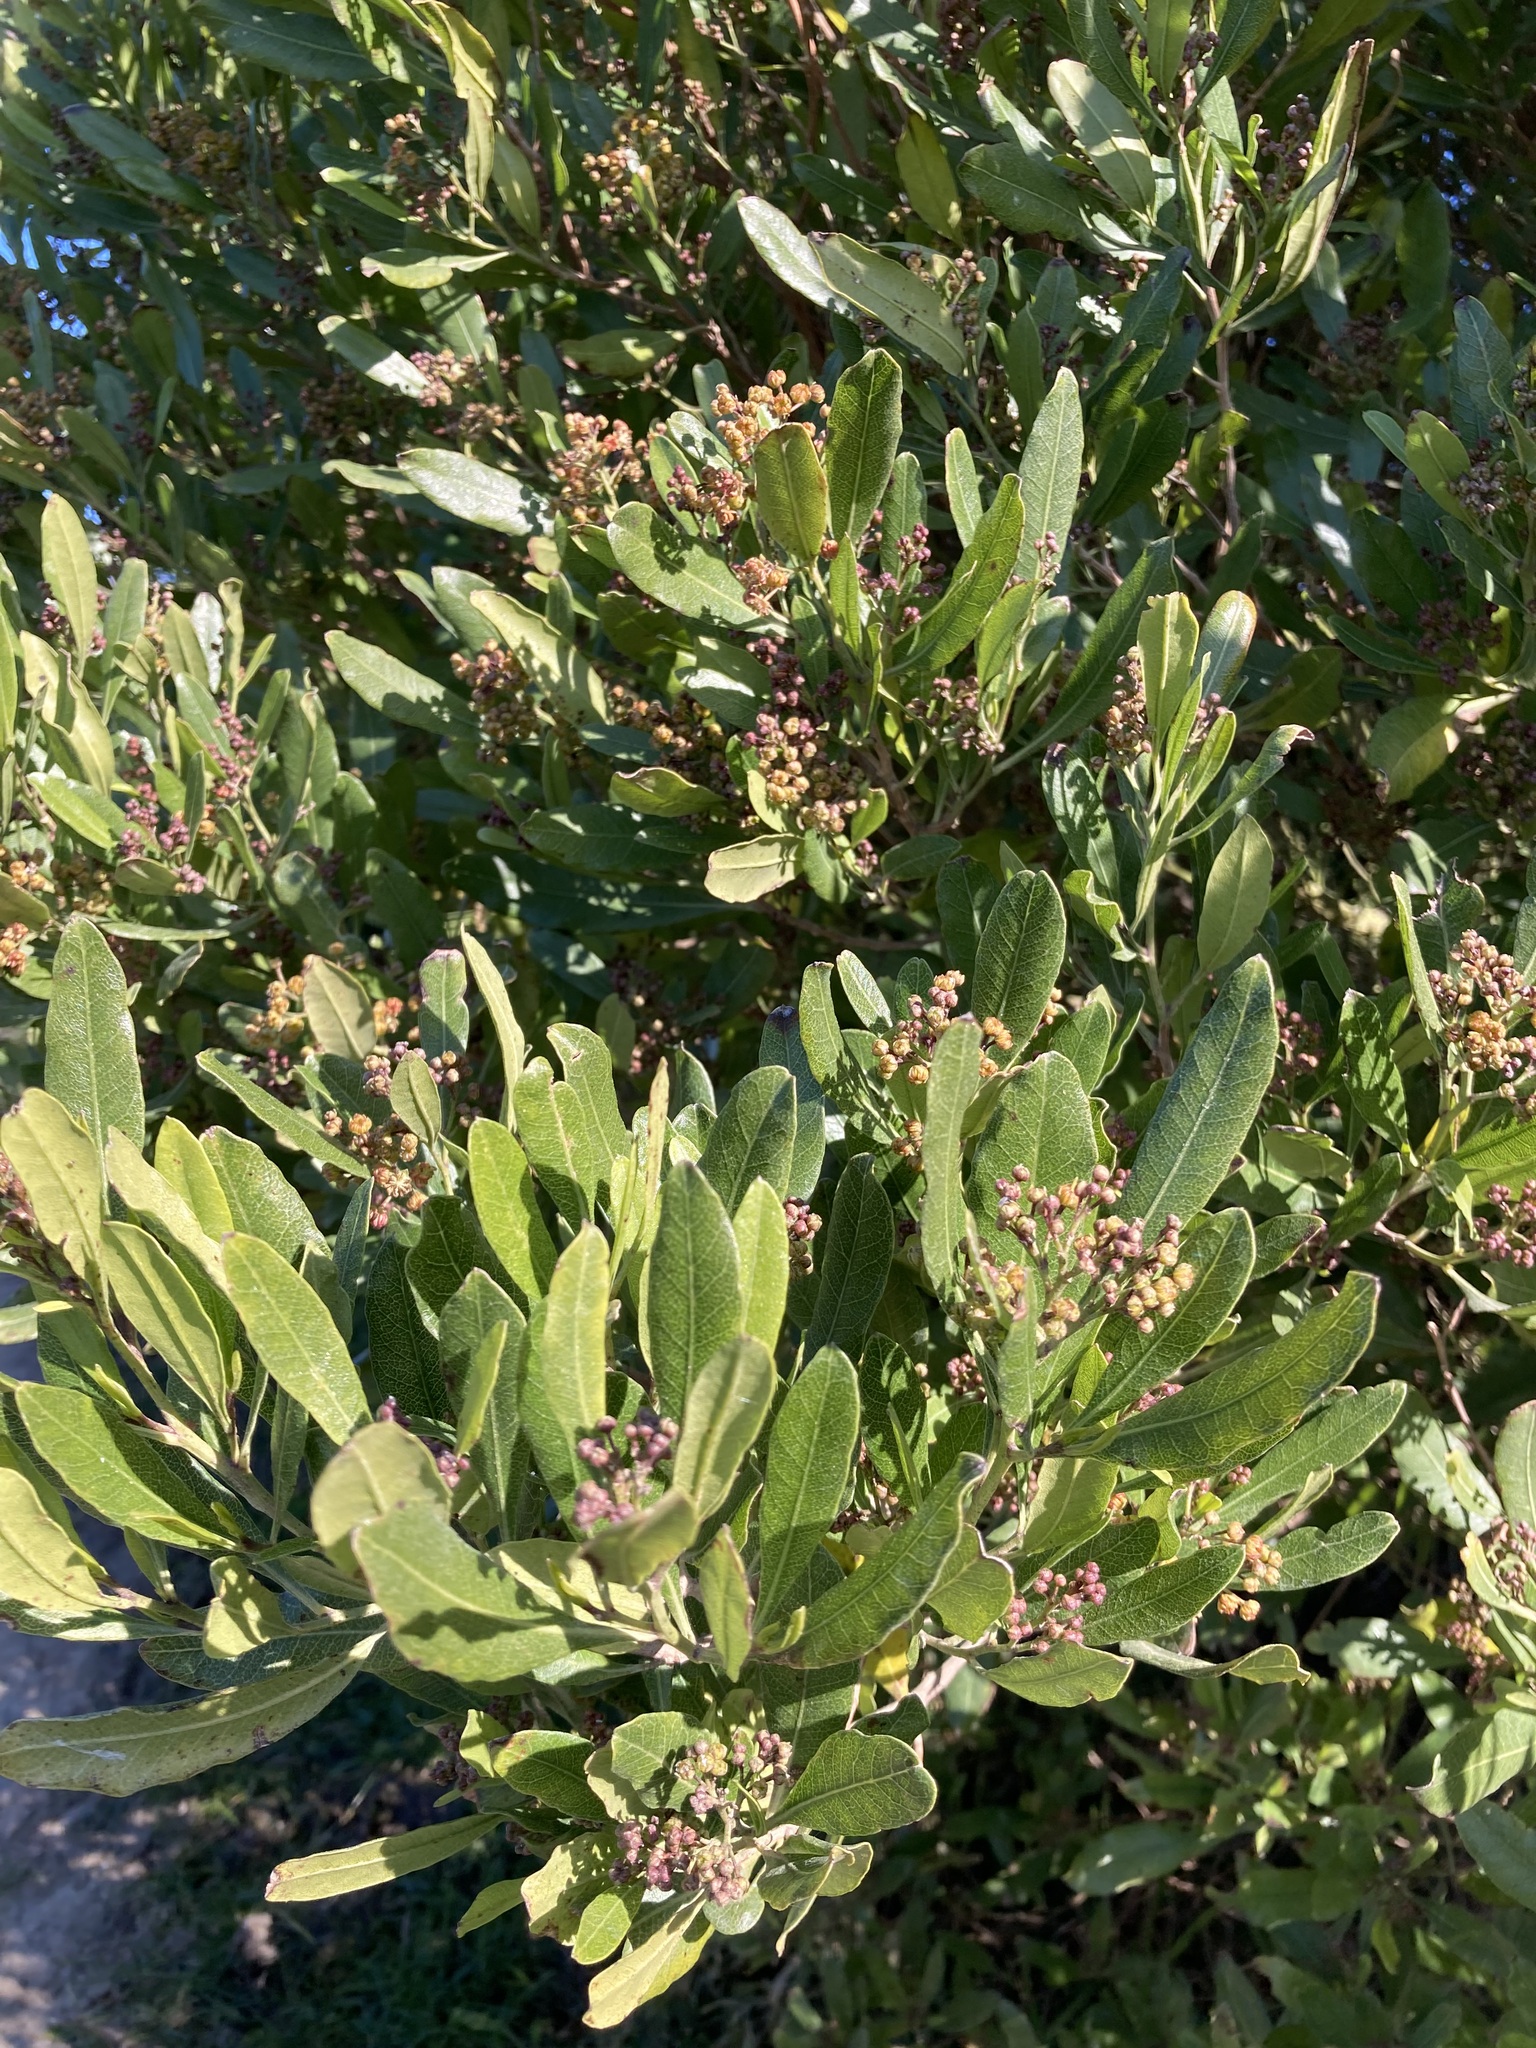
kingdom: Plantae
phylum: Tracheophyta
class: Magnoliopsida
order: Sapindales
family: Sapindaceae
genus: Dodonaea
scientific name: Dodonaea viscosa
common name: Hopbush
